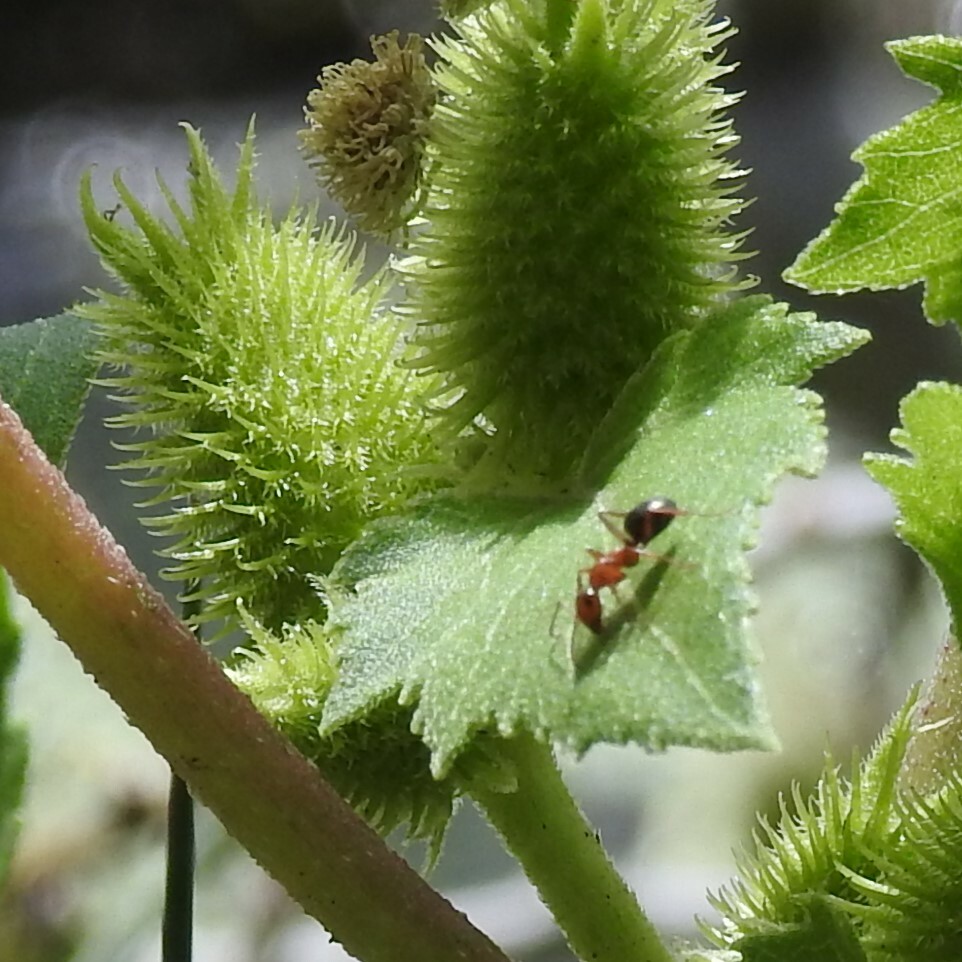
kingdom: Animalia
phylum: Arthropoda
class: Insecta
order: Hymenoptera
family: Formicidae
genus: Formica
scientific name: Formica perpilosa
